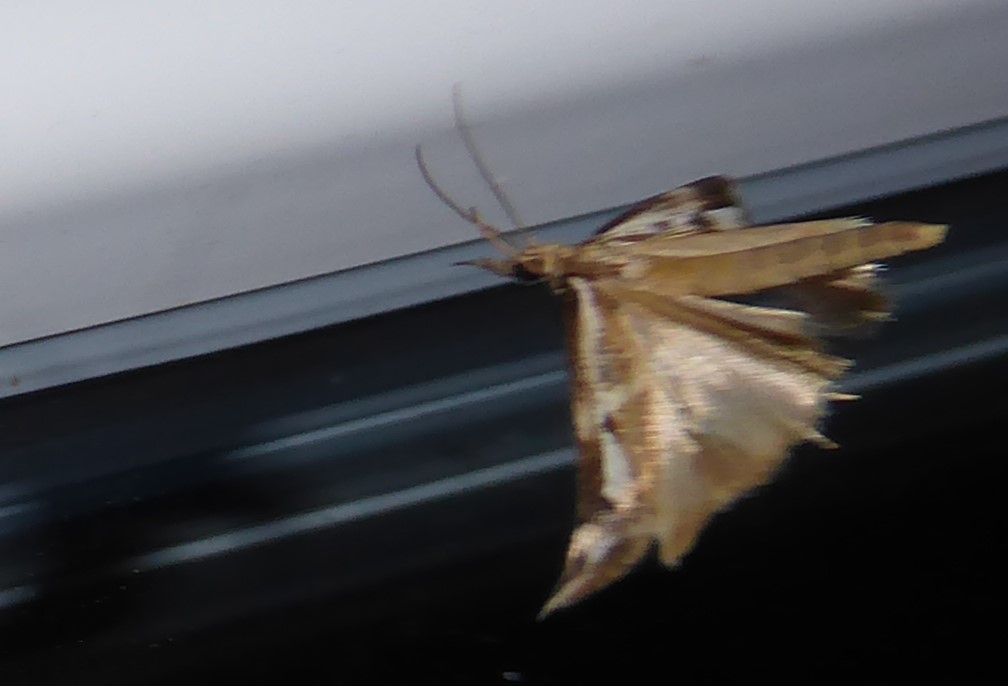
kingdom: Animalia
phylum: Arthropoda
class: Insecta
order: Lepidoptera
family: Crambidae
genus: Orocrambus
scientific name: Orocrambus vulgaris
